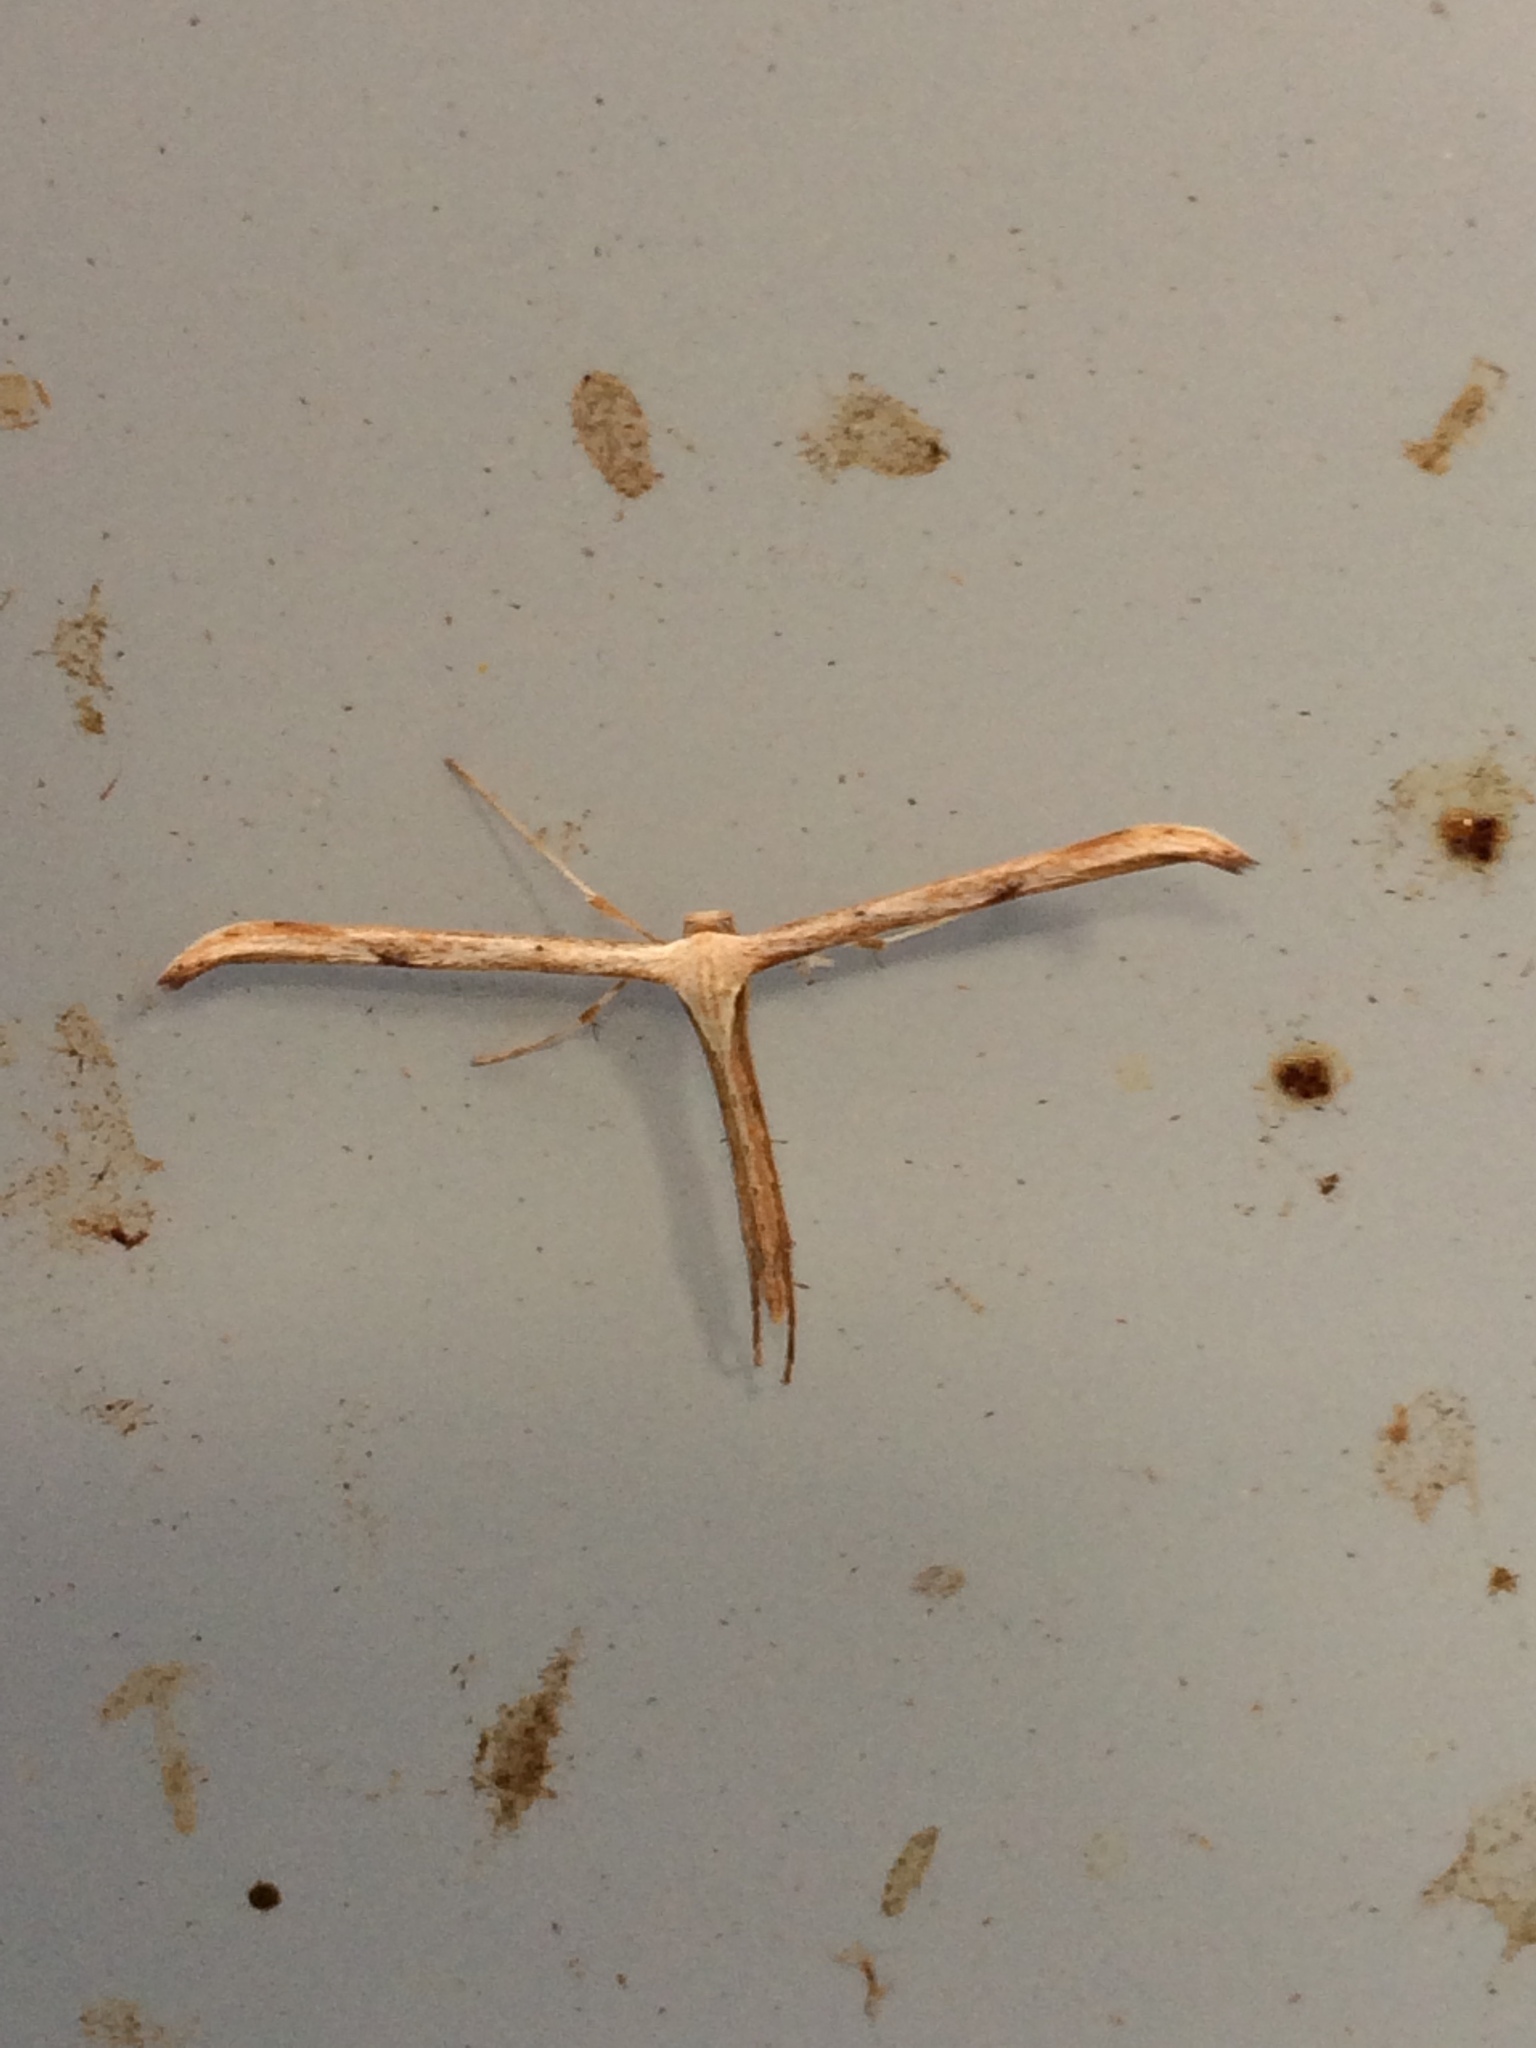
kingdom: Animalia
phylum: Arthropoda
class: Insecta
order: Lepidoptera
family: Pterophoridae
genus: Emmelina
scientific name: Emmelina monodactyla
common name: Common plume
